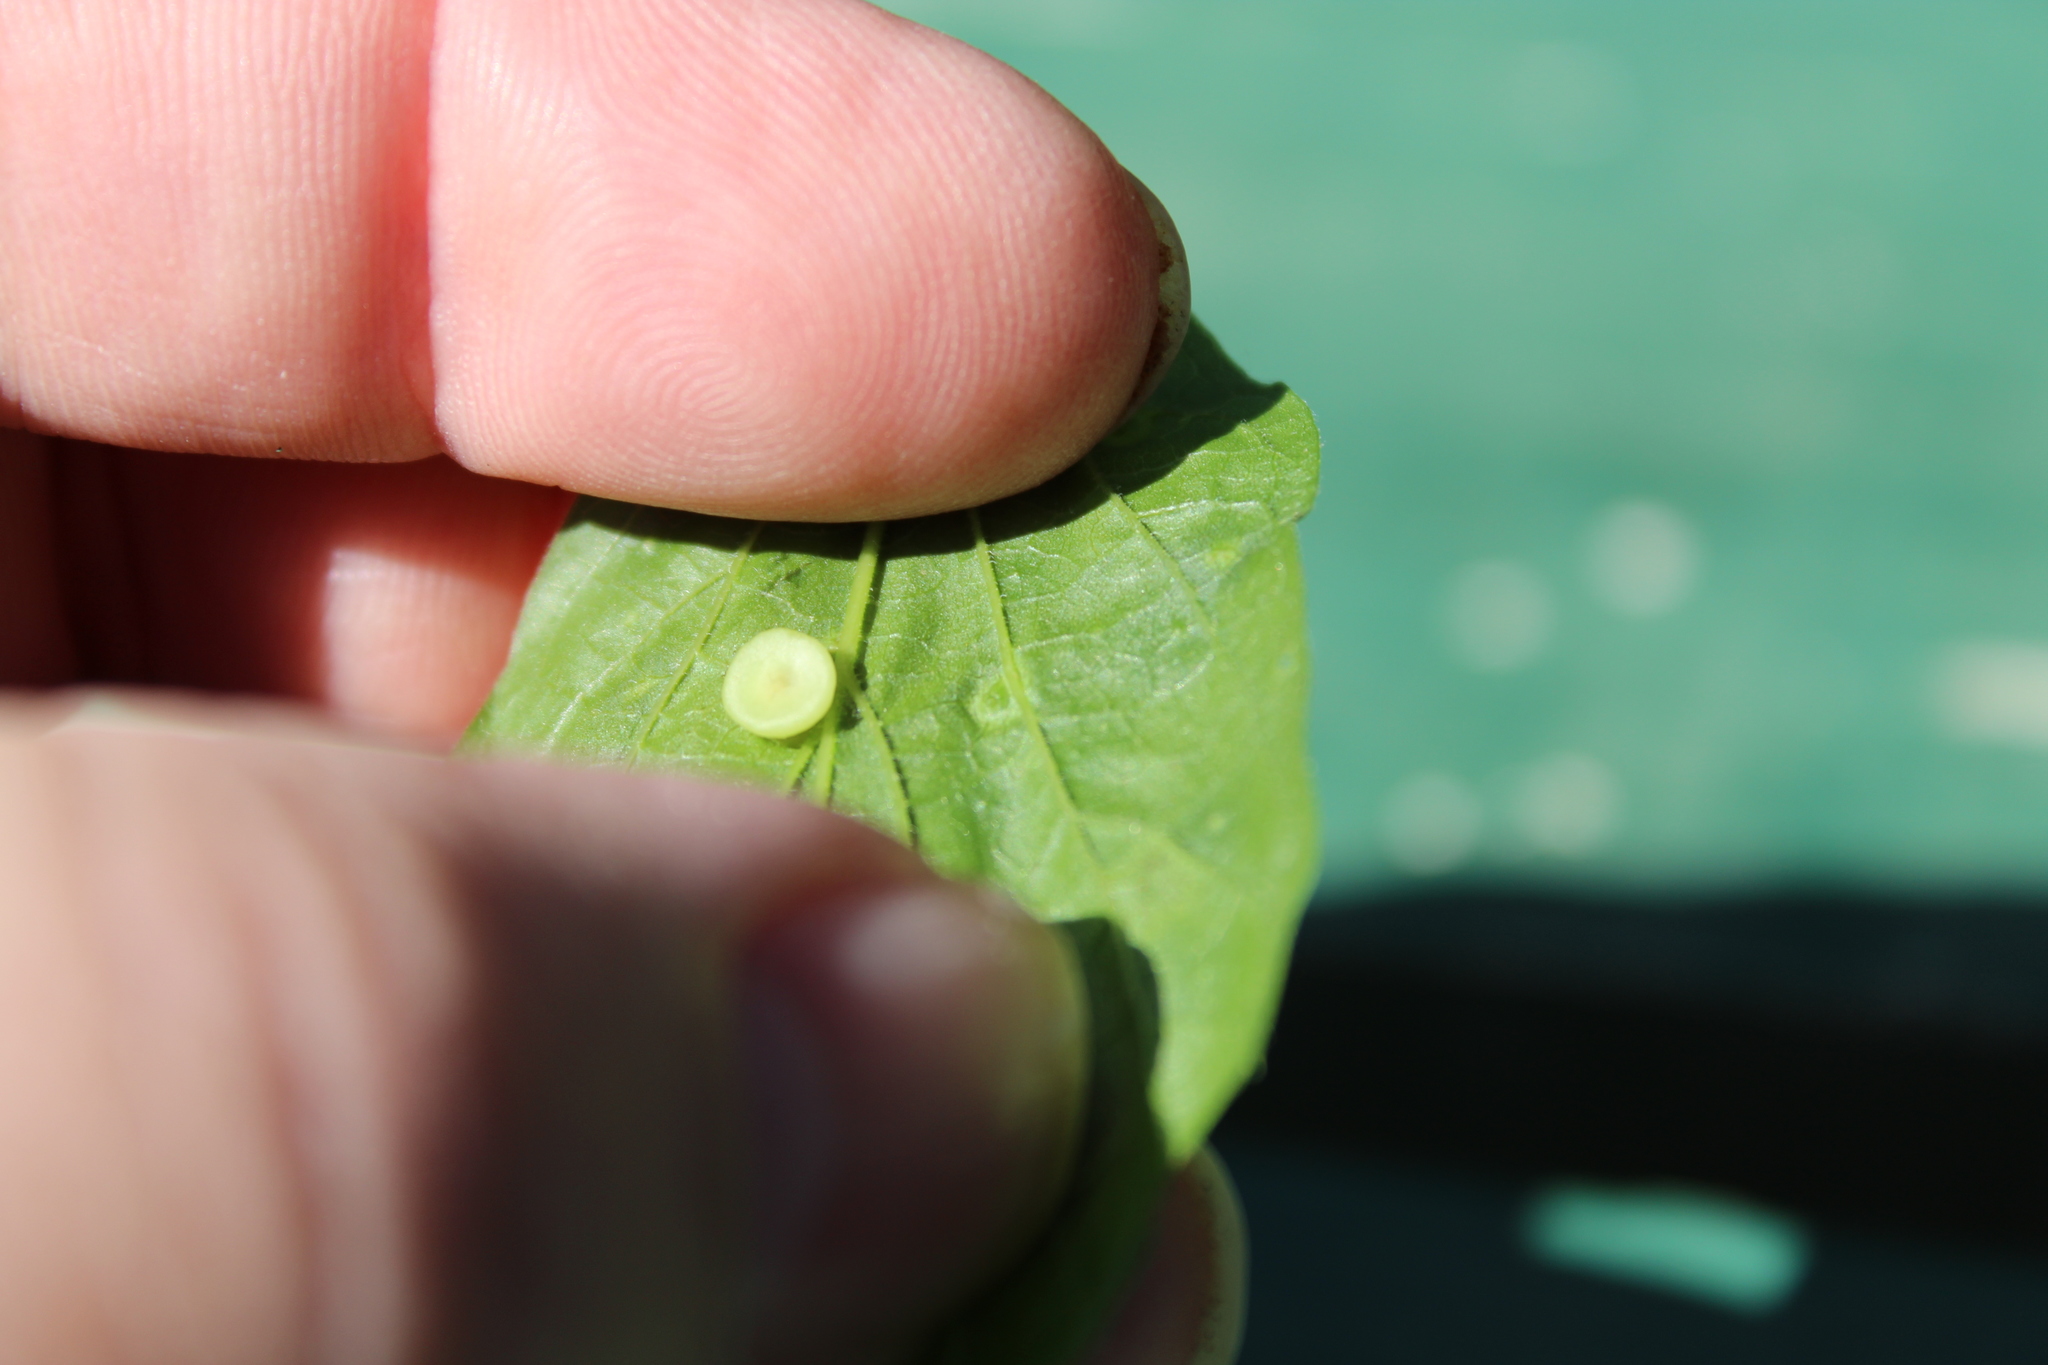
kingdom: Animalia
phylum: Arthropoda
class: Insecta
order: Hemiptera
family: Aphalaridae
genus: Pachypsylla
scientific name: Pachypsylla celtidismamma
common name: Hackberry nipplegall psyllid
